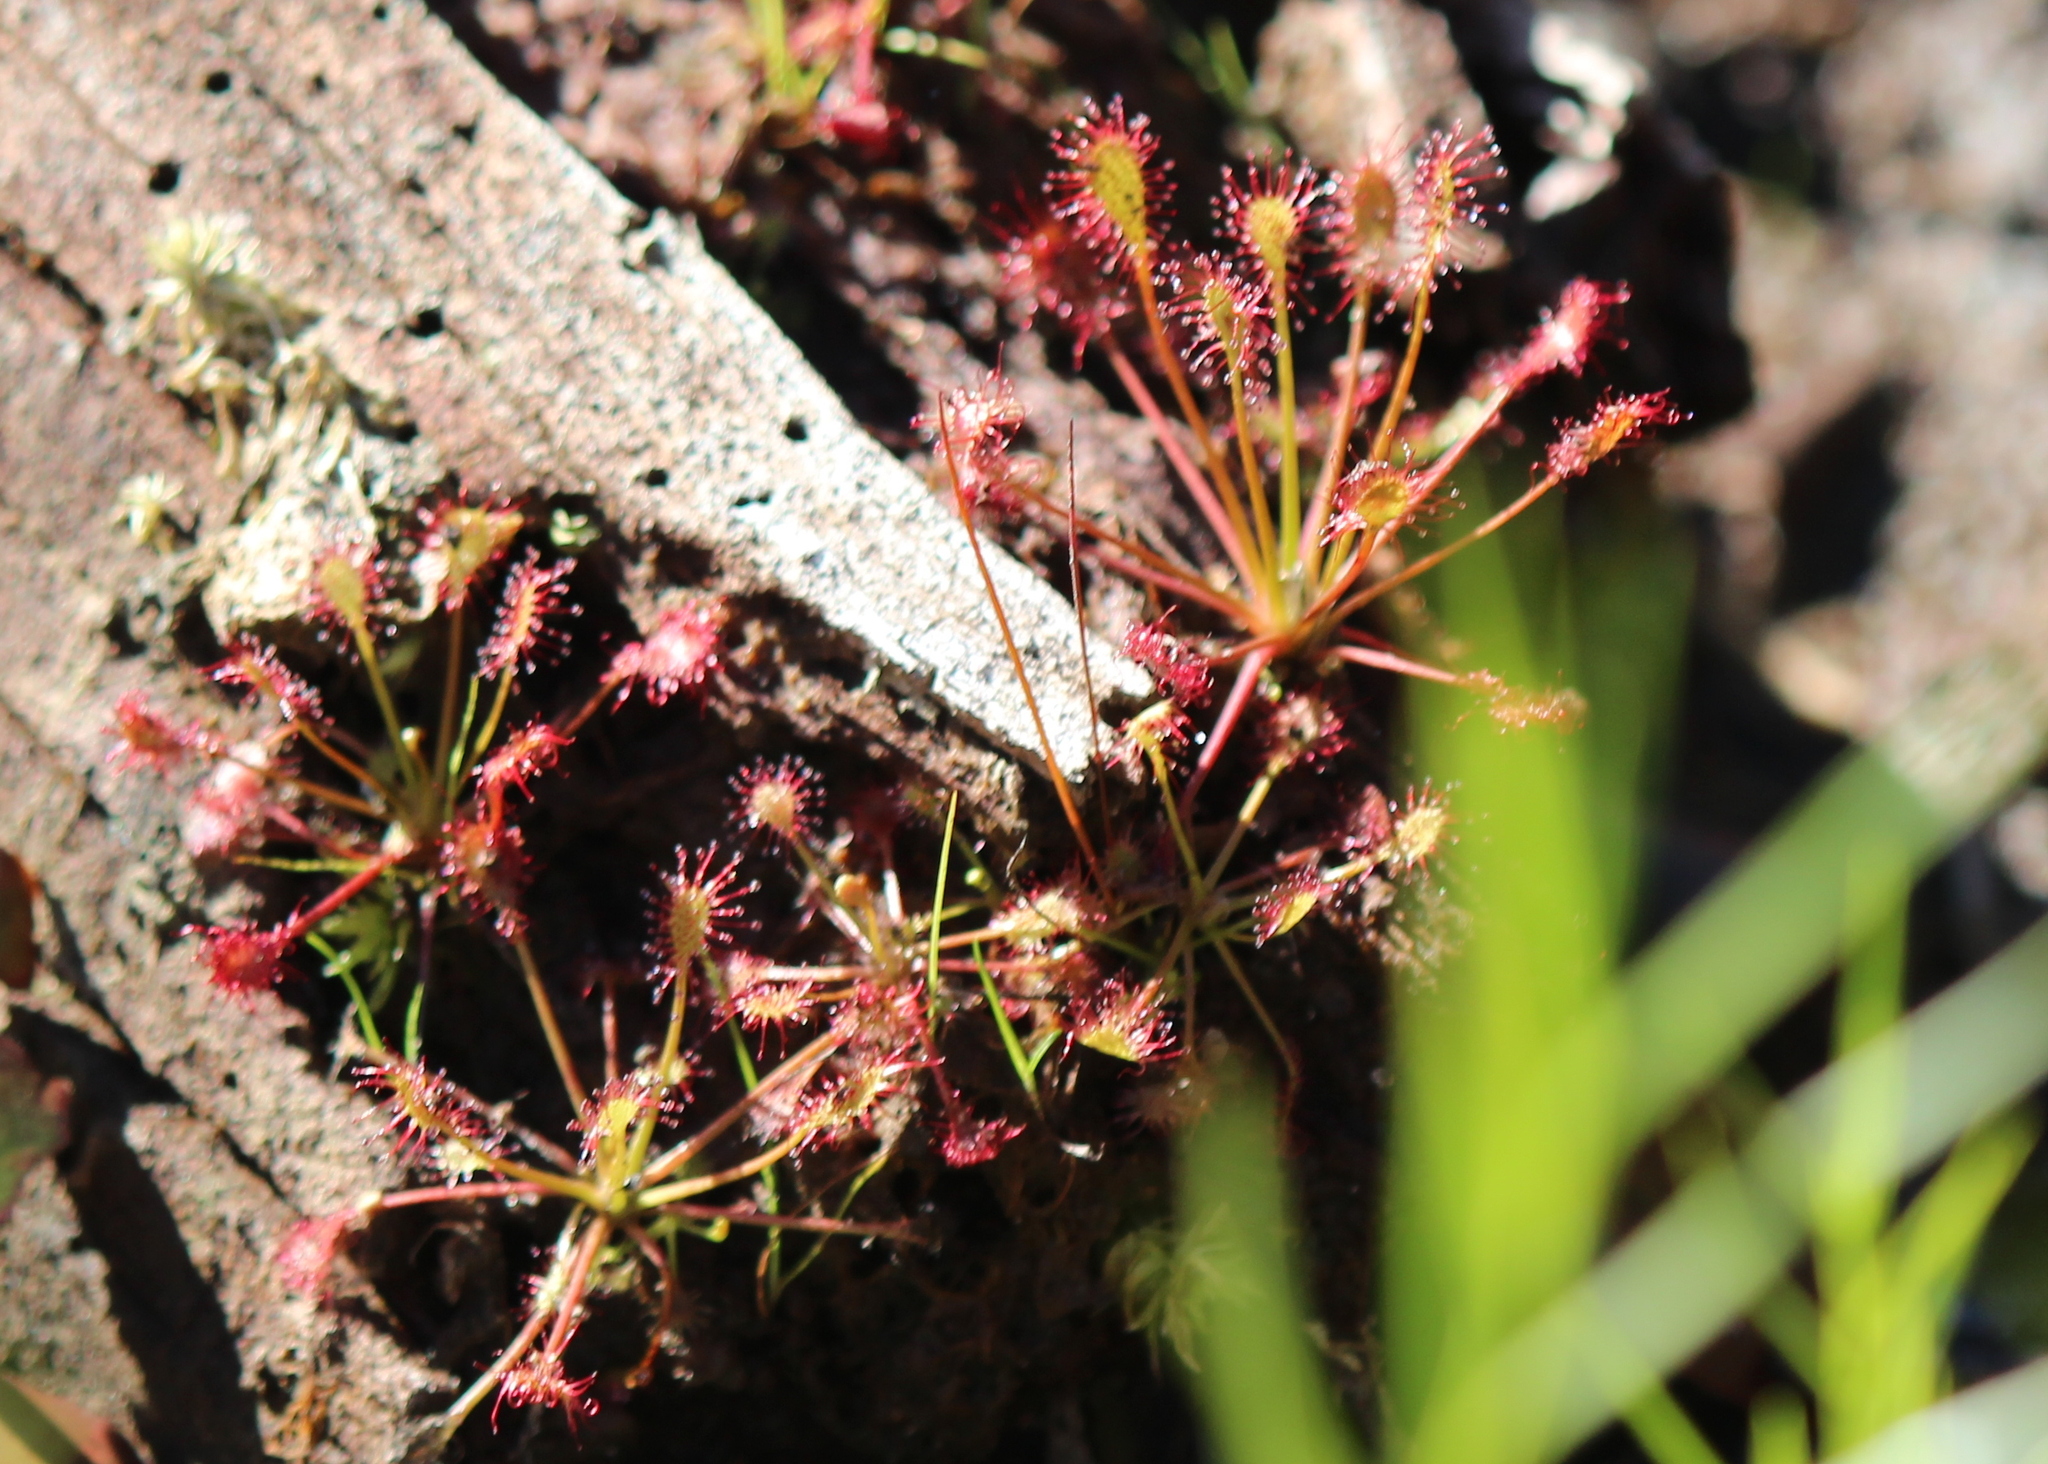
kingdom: Plantae
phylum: Tracheophyta
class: Magnoliopsida
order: Caryophyllales
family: Droseraceae
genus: Drosera
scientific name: Drosera intermedia
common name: Oblong-leaved sundew
